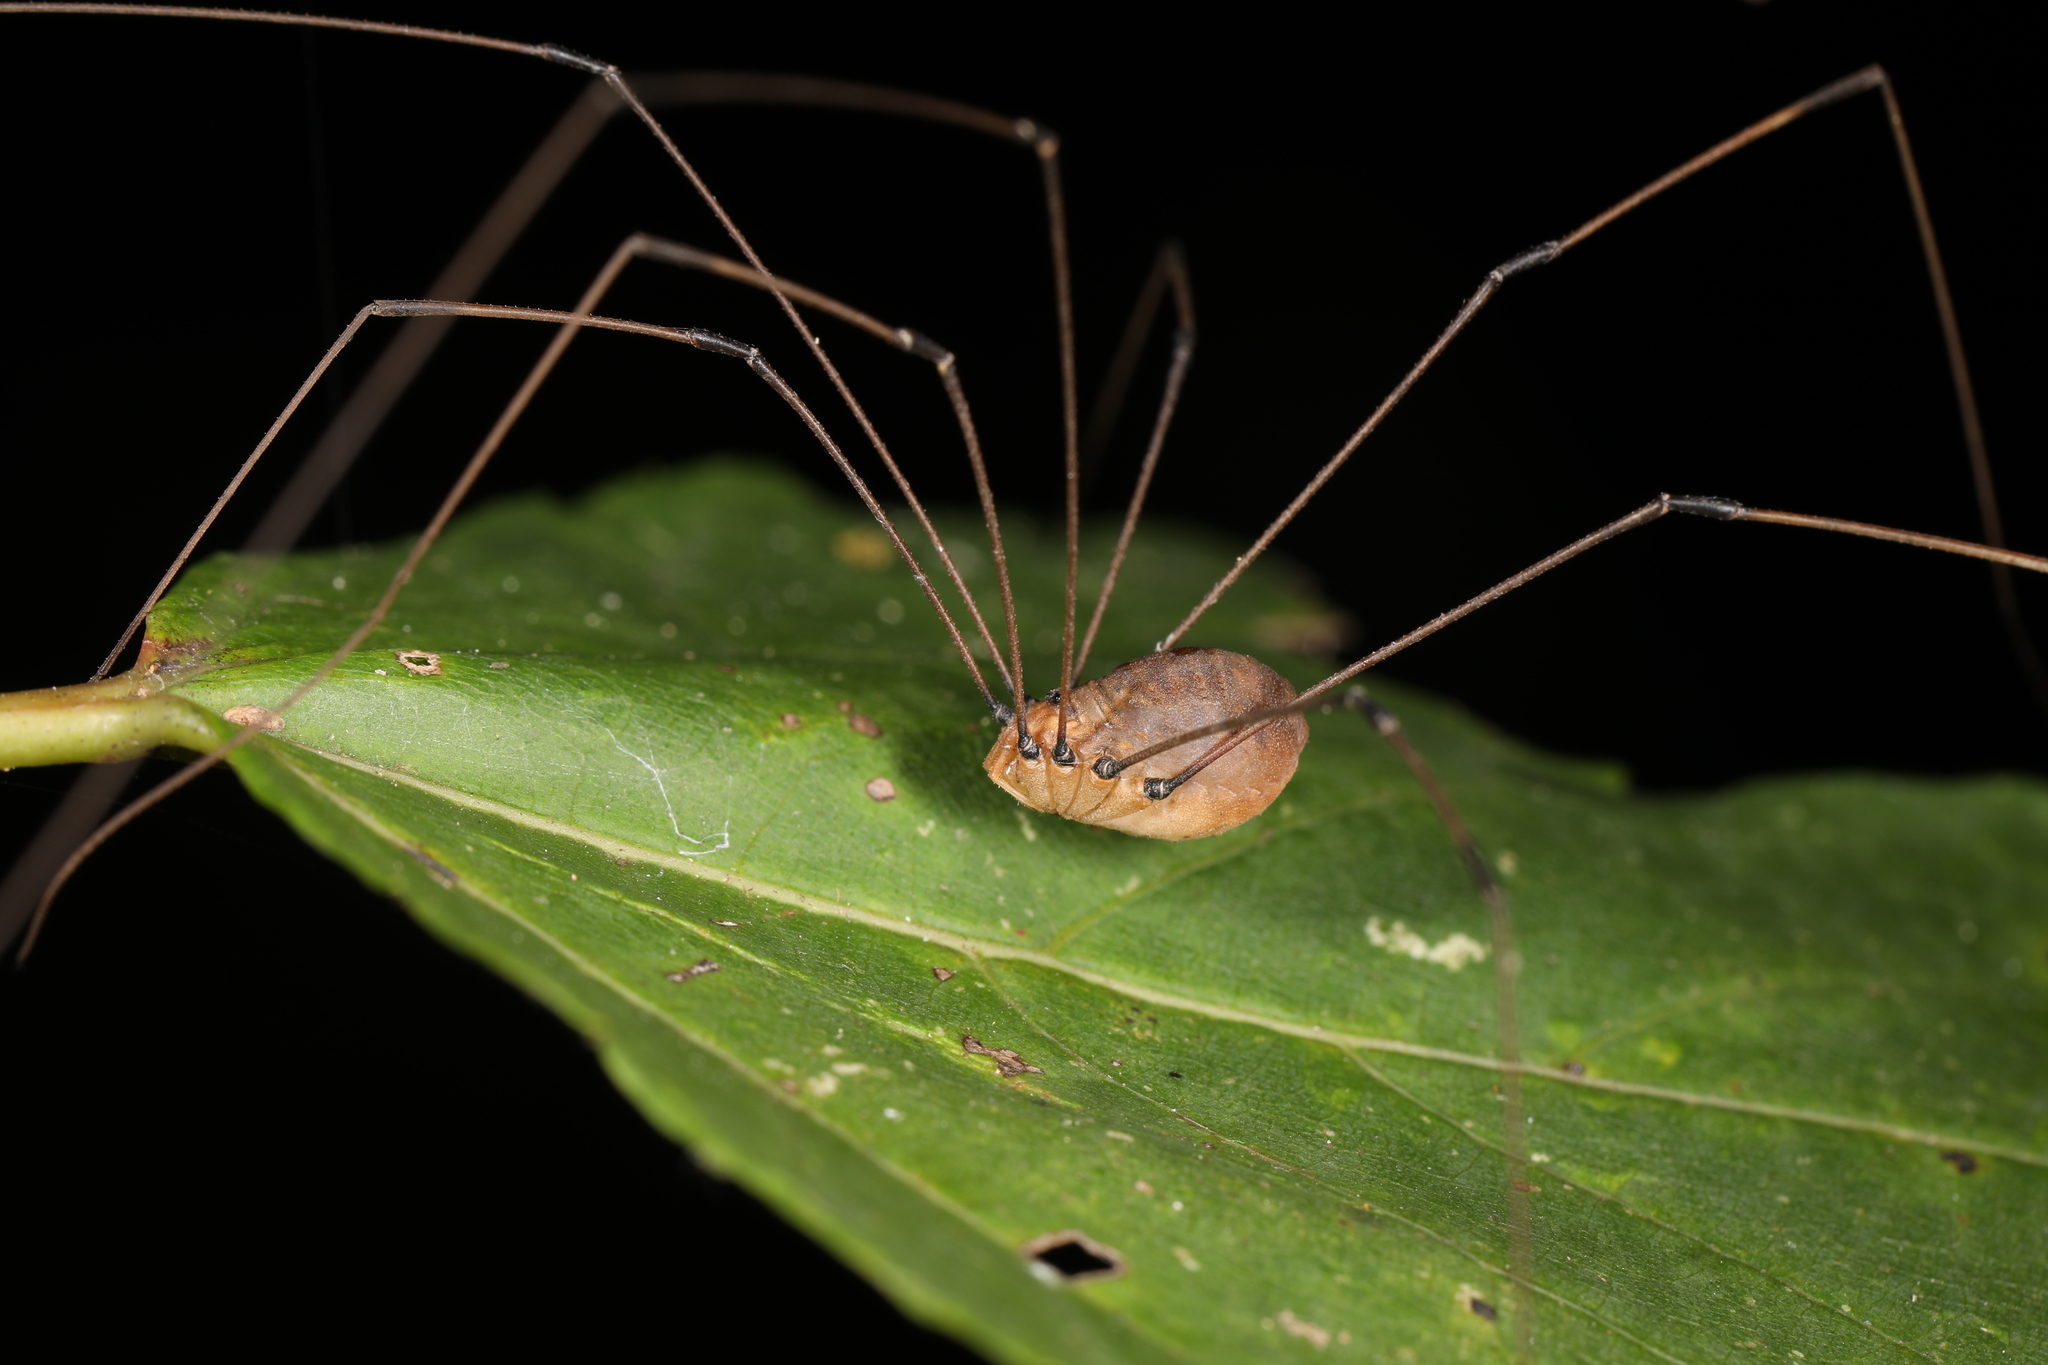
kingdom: Animalia
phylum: Arthropoda
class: Arachnida
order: Opiliones
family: Sclerosomatidae
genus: Leiobunum
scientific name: Leiobunum vittatum
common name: Eastern harvestman
